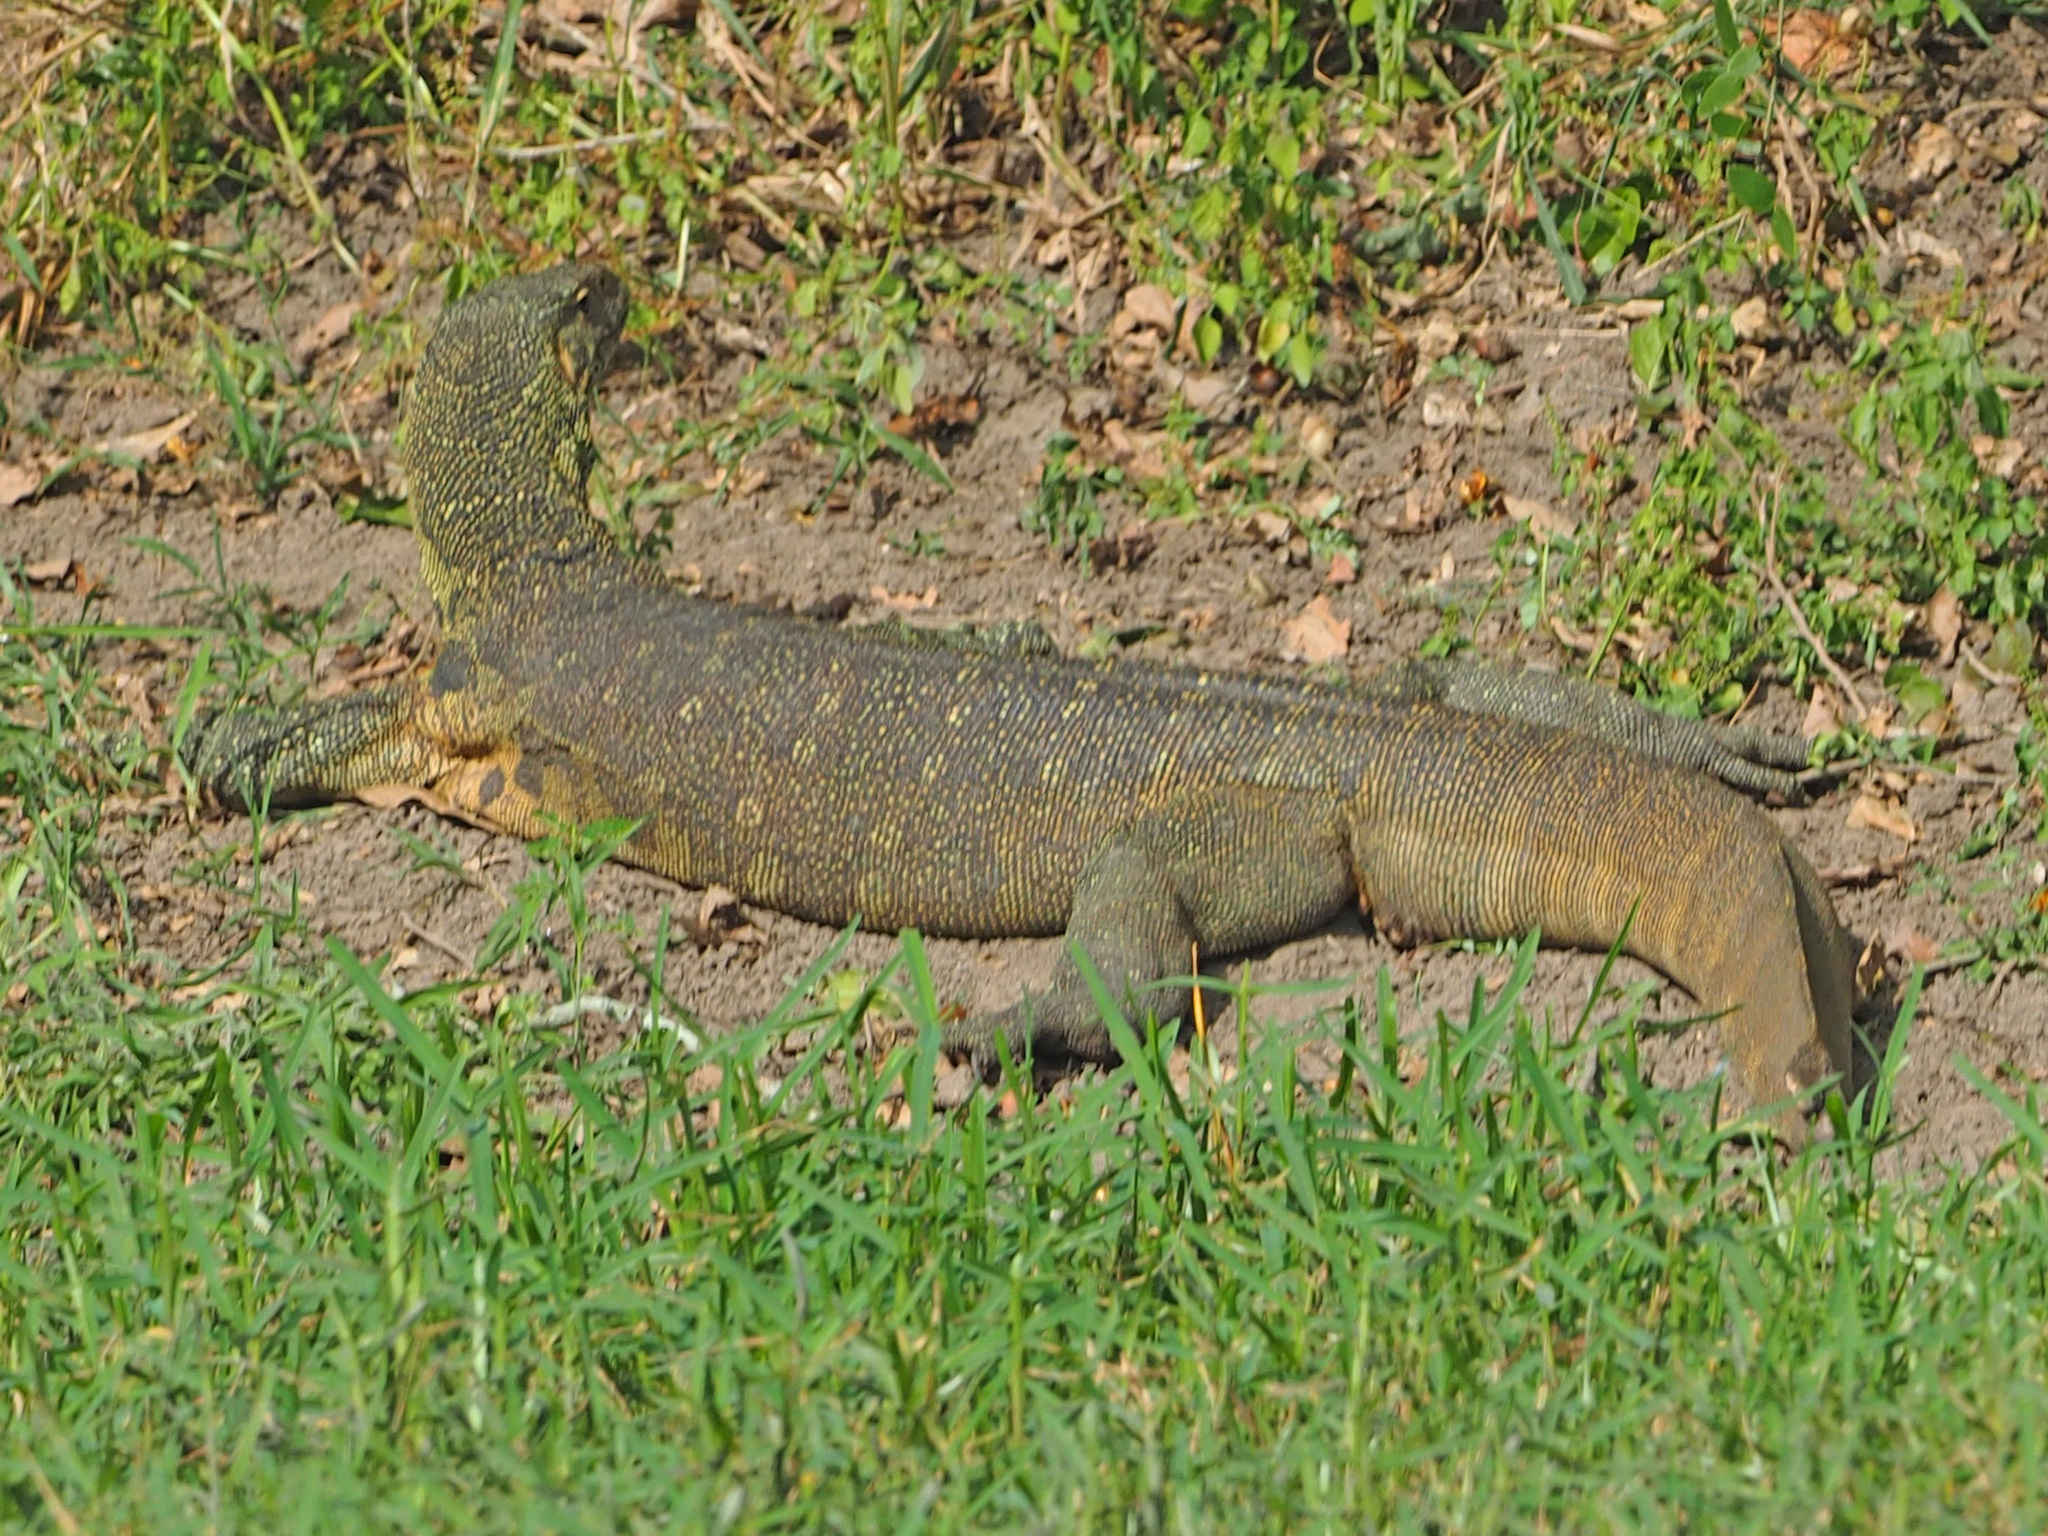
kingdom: Animalia
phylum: Chordata
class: Squamata
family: Varanidae
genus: Varanus
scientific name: Varanus niloticus
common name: Nile monitor
